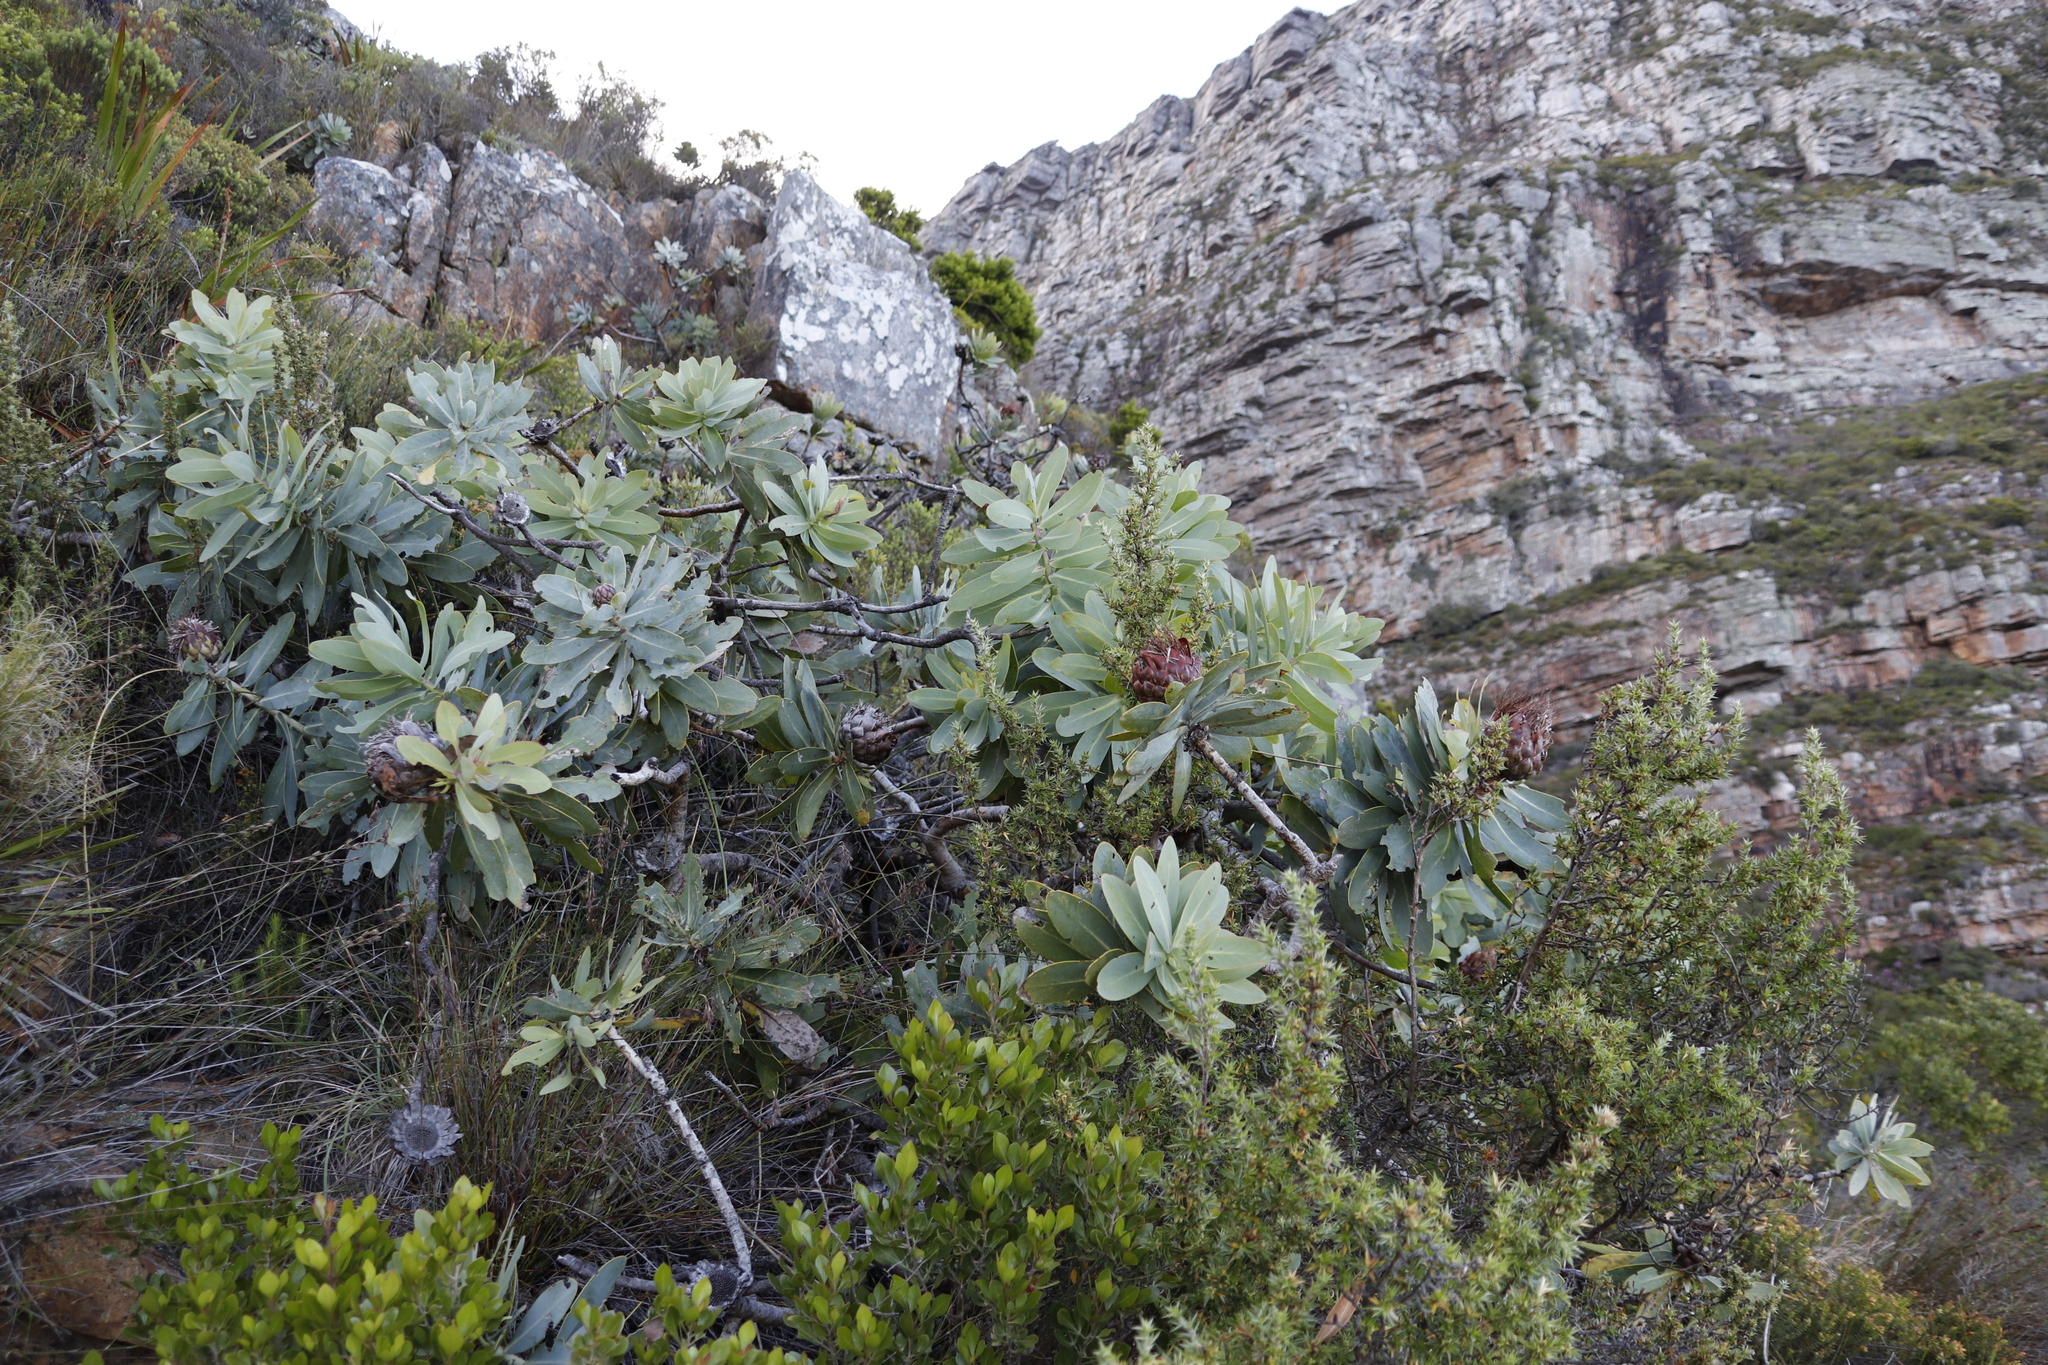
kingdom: Plantae
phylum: Tracheophyta
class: Magnoliopsida
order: Proteales
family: Proteaceae
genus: Protea
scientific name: Protea nitida
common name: Tree protea
